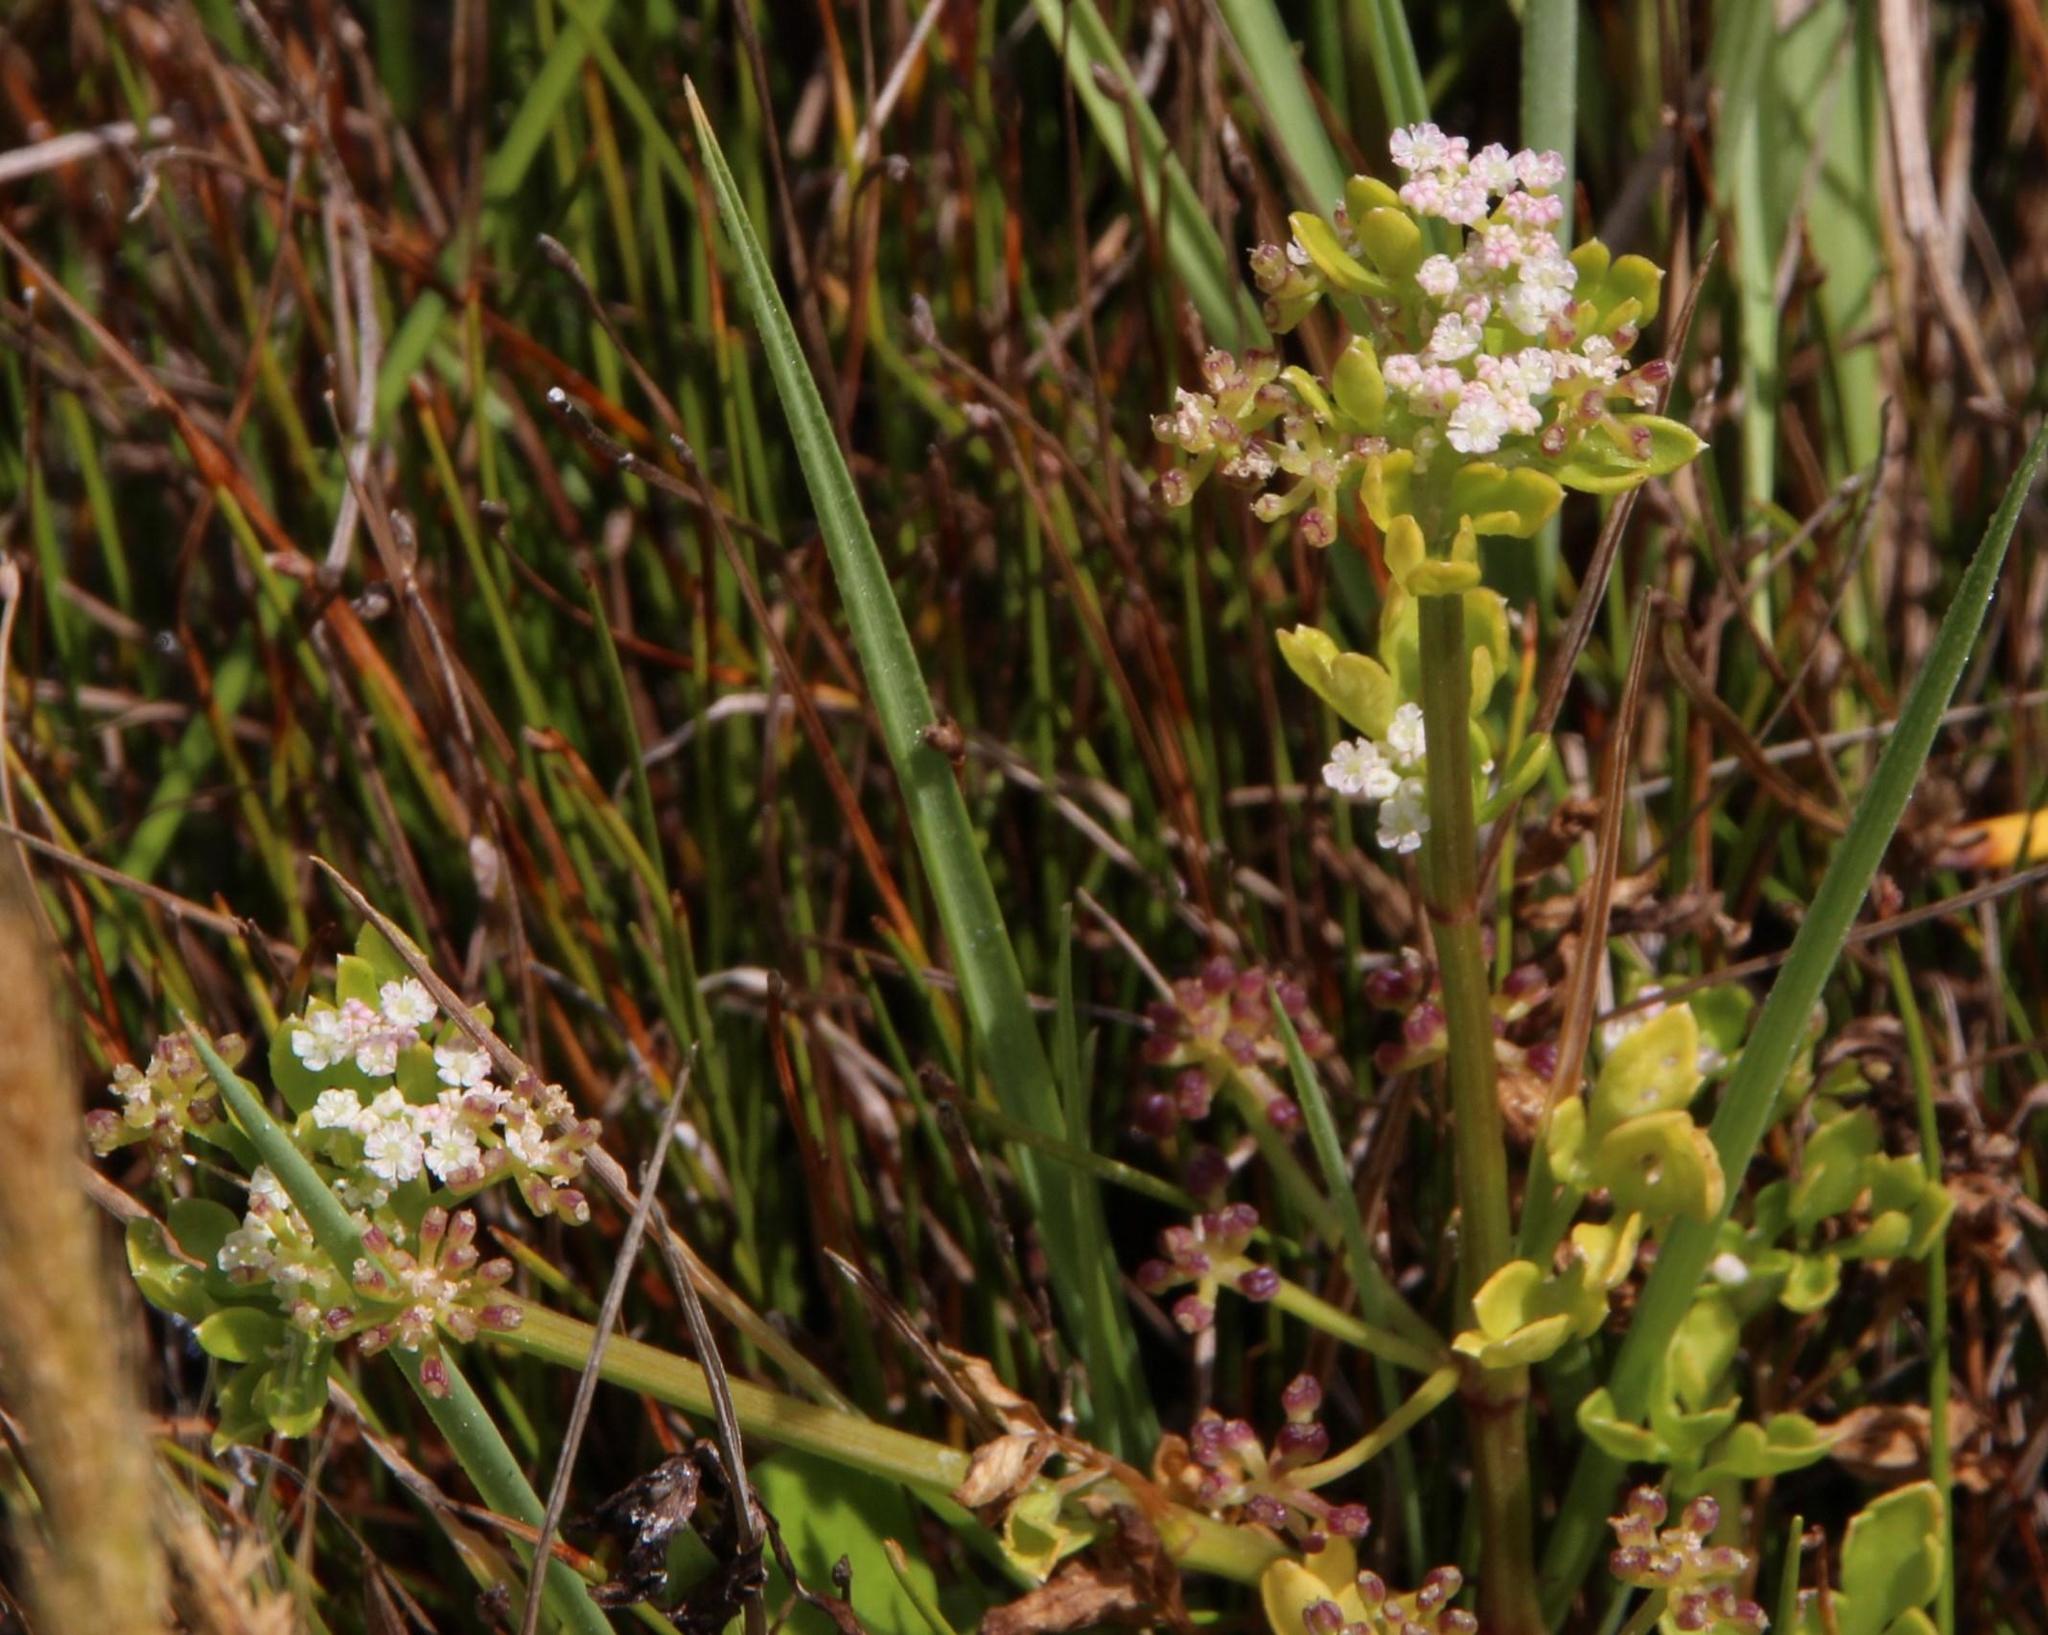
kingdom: Plantae
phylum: Tracheophyta
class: Magnoliopsida
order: Apiales
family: Apiaceae
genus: Apium
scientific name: Apium decumbens
